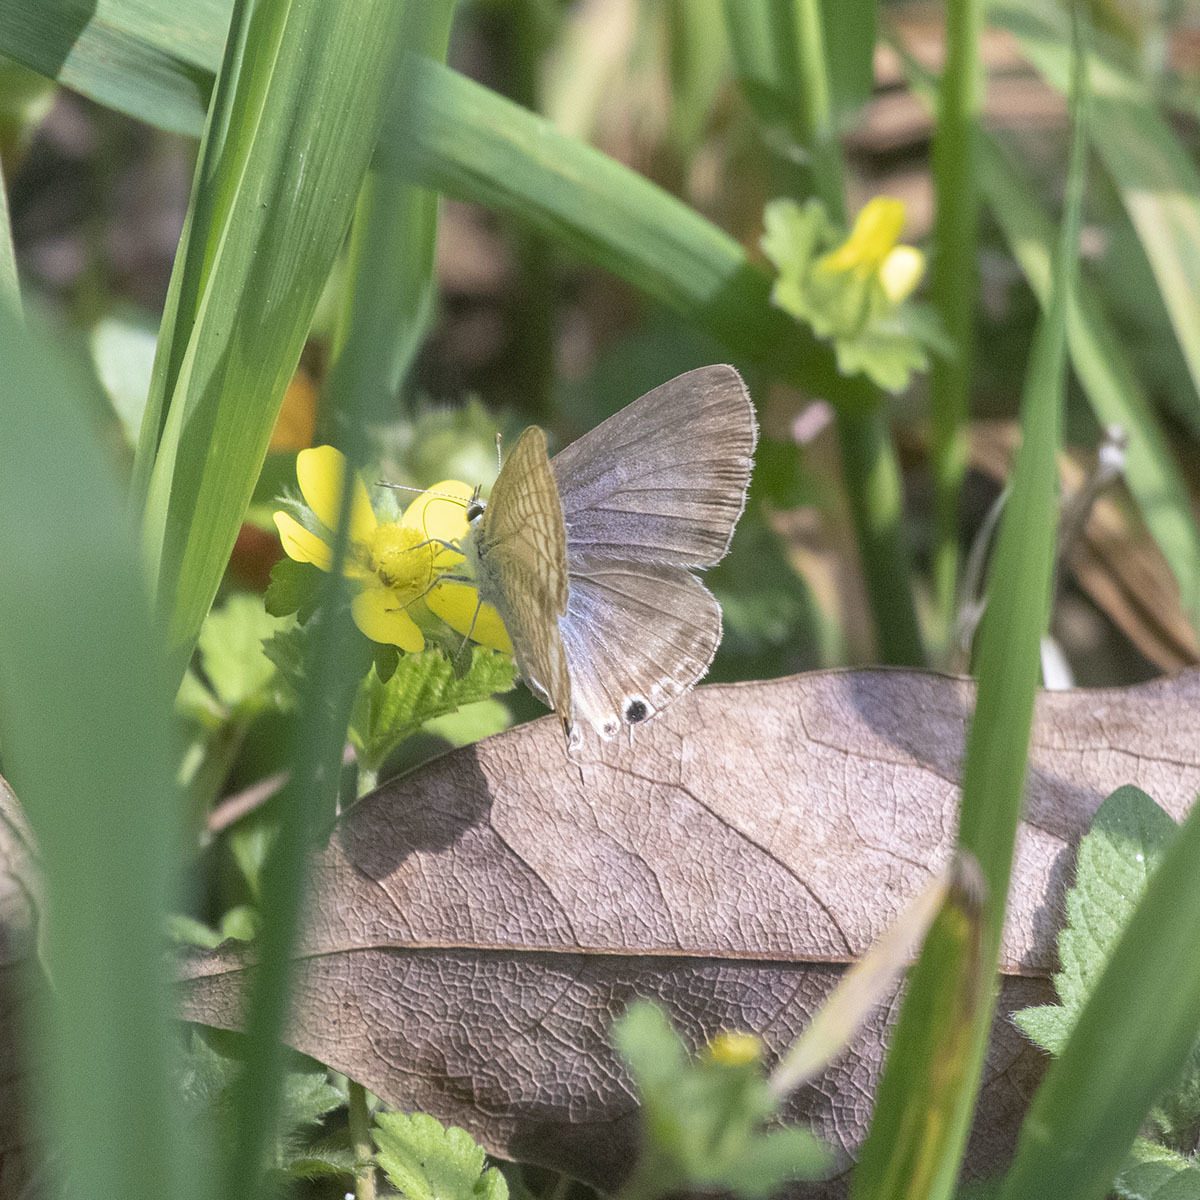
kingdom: Animalia
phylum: Arthropoda
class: Insecta
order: Lepidoptera
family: Lycaenidae
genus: Lampides
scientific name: Lampides boeticus
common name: Long-tailed blue
